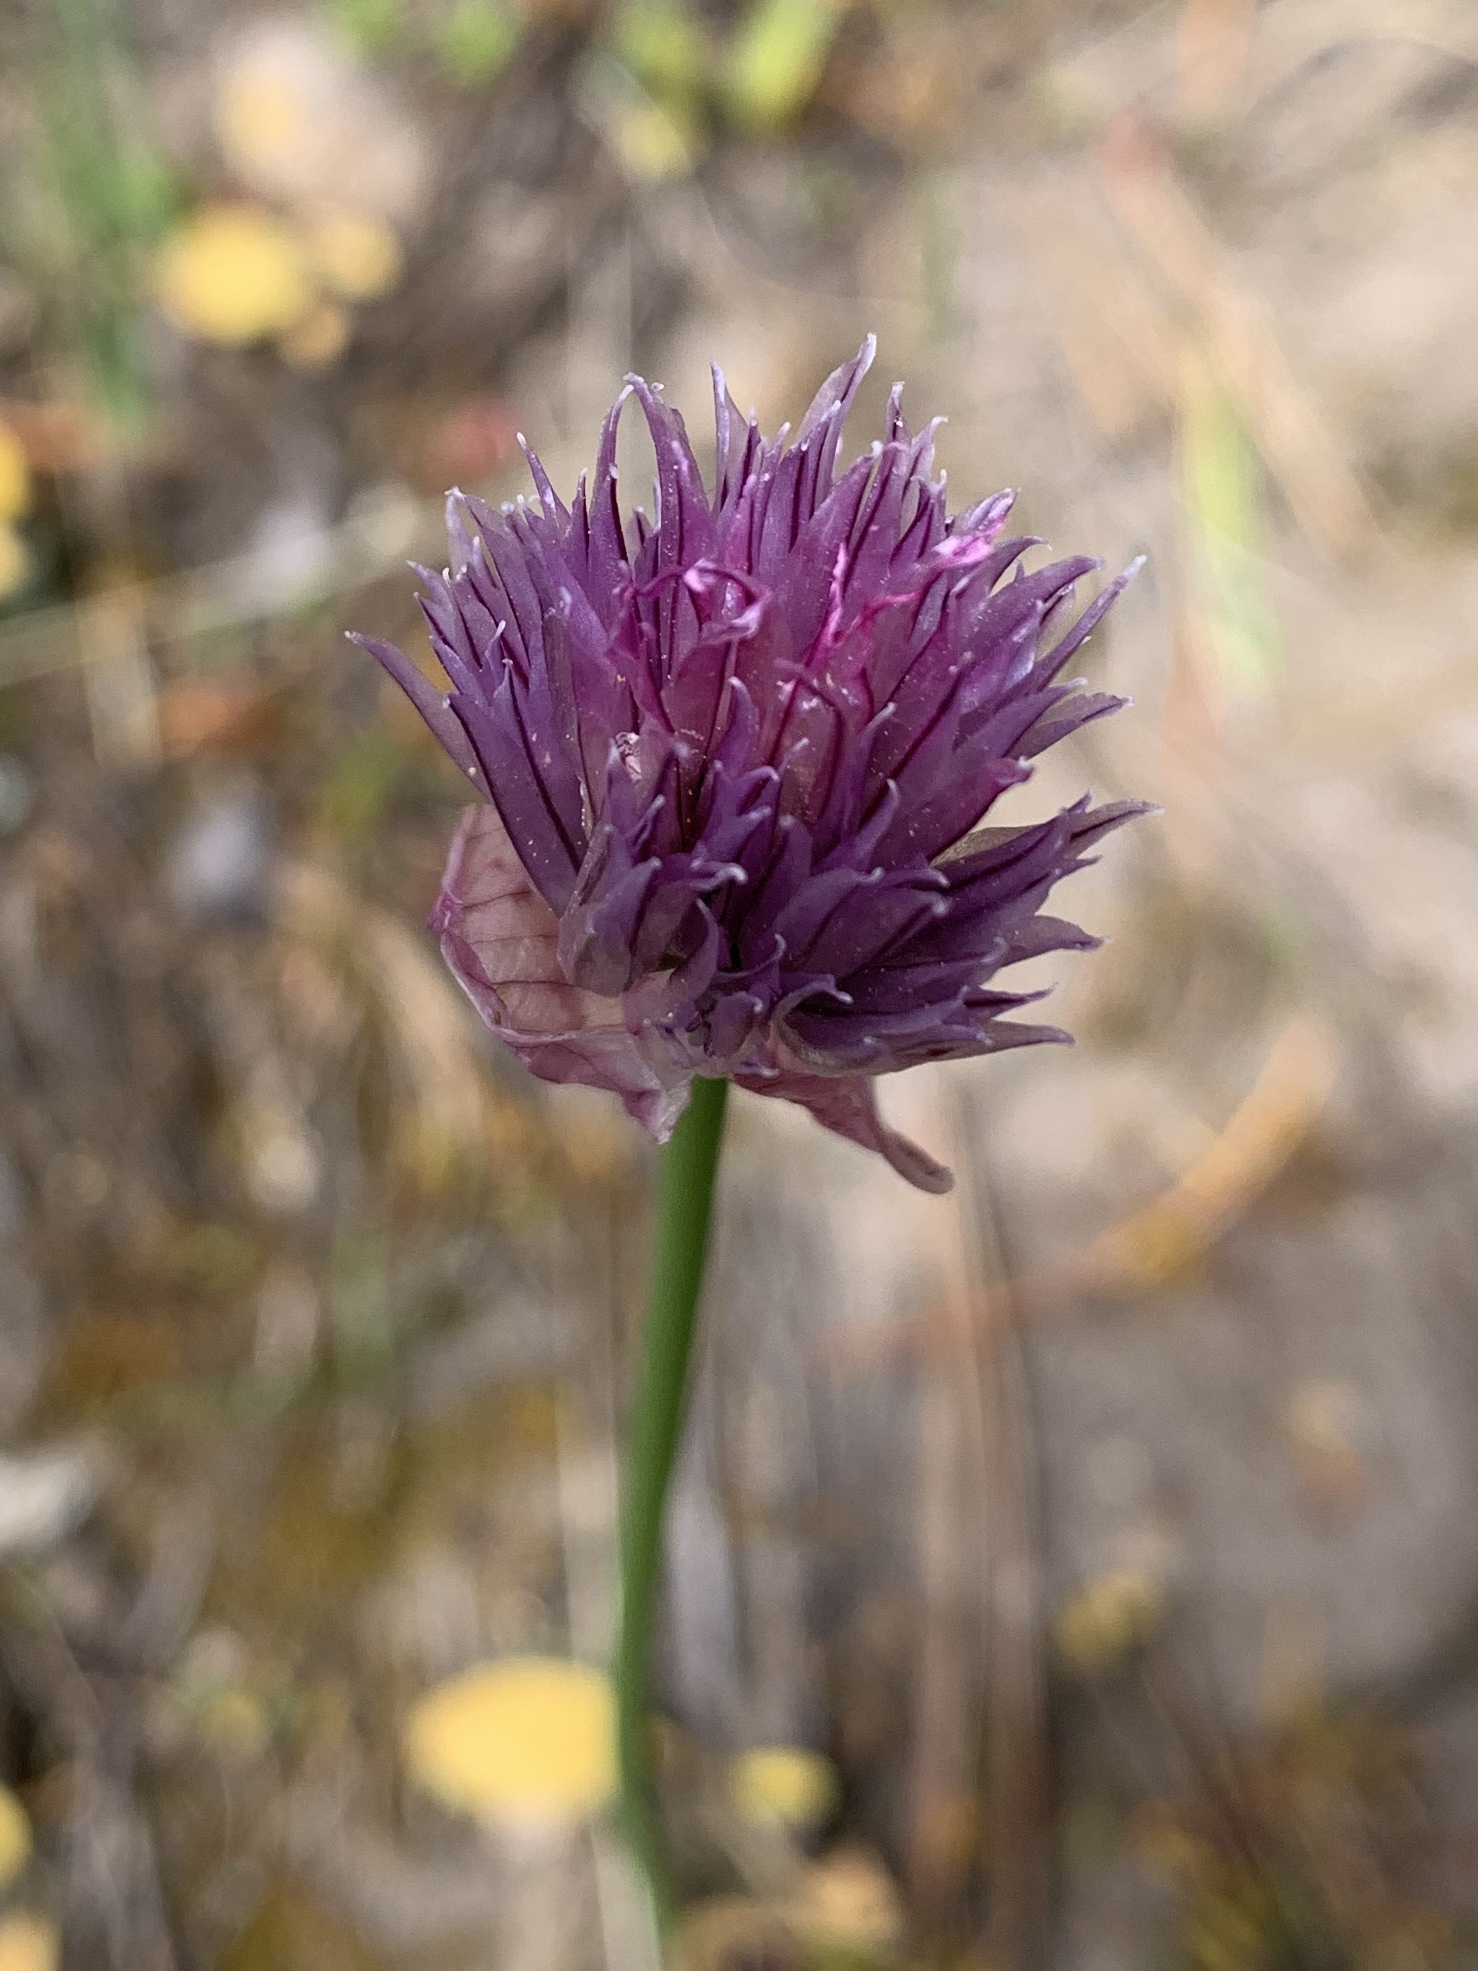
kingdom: Plantae
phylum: Tracheophyta
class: Liliopsida
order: Asparagales
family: Amaryllidaceae
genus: Allium
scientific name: Allium schoenoprasum
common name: Chives
